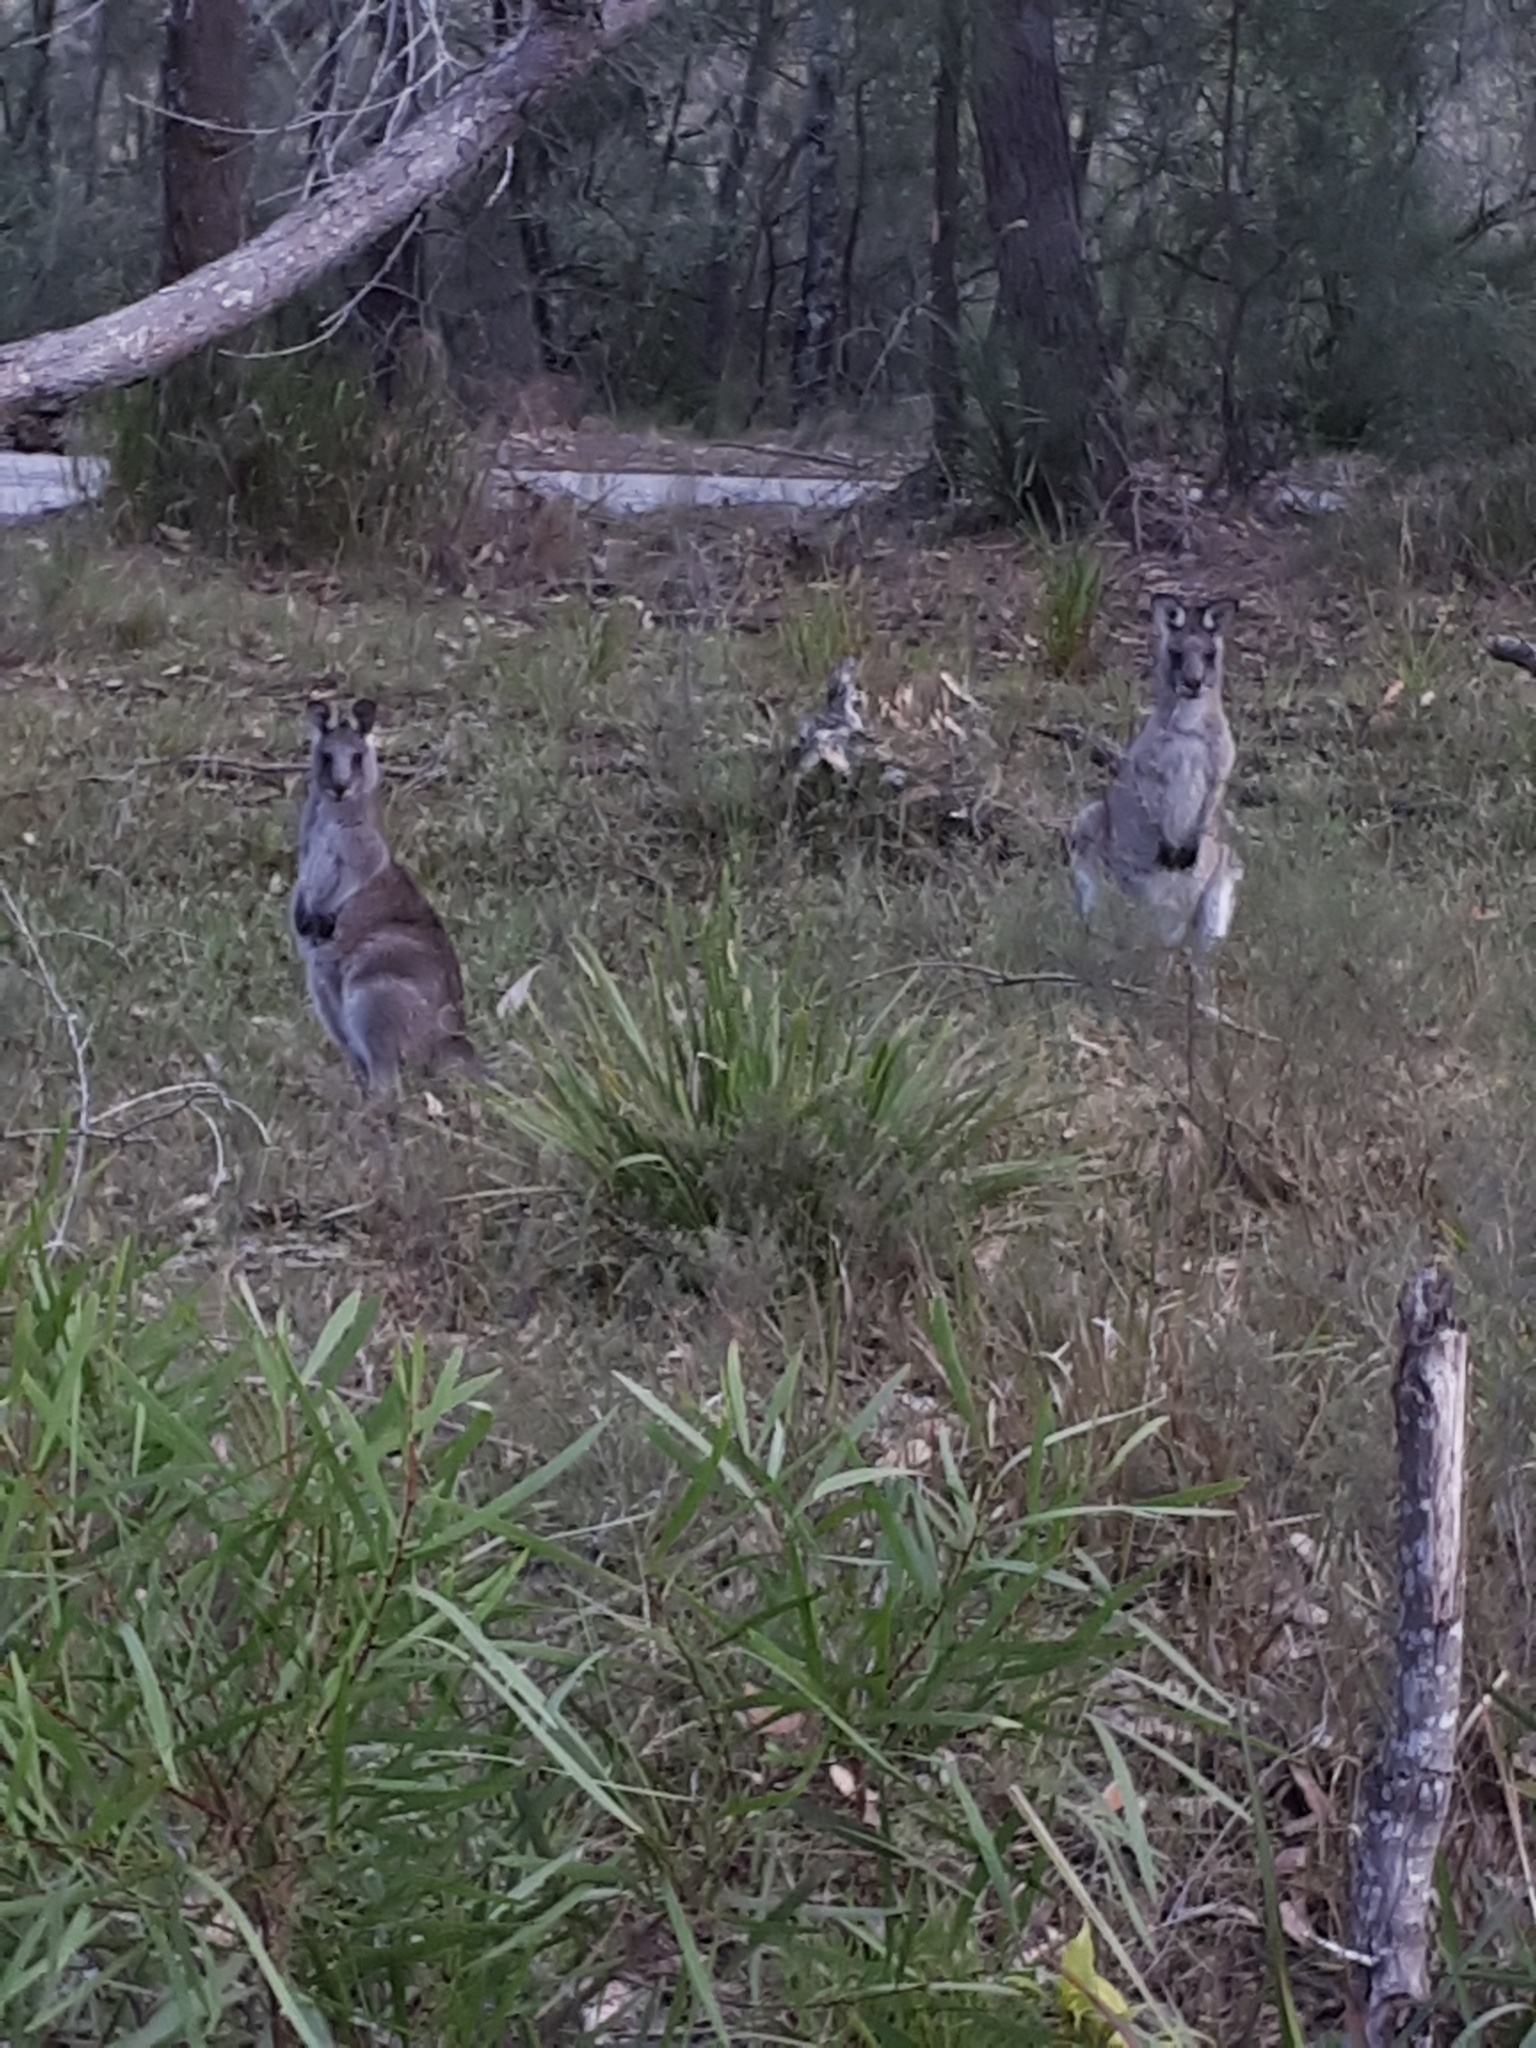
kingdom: Animalia
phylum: Chordata
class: Mammalia
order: Diprotodontia
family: Macropodidae
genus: Macropus
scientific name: Macropus giganteus
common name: Eastern grey kangaroo
